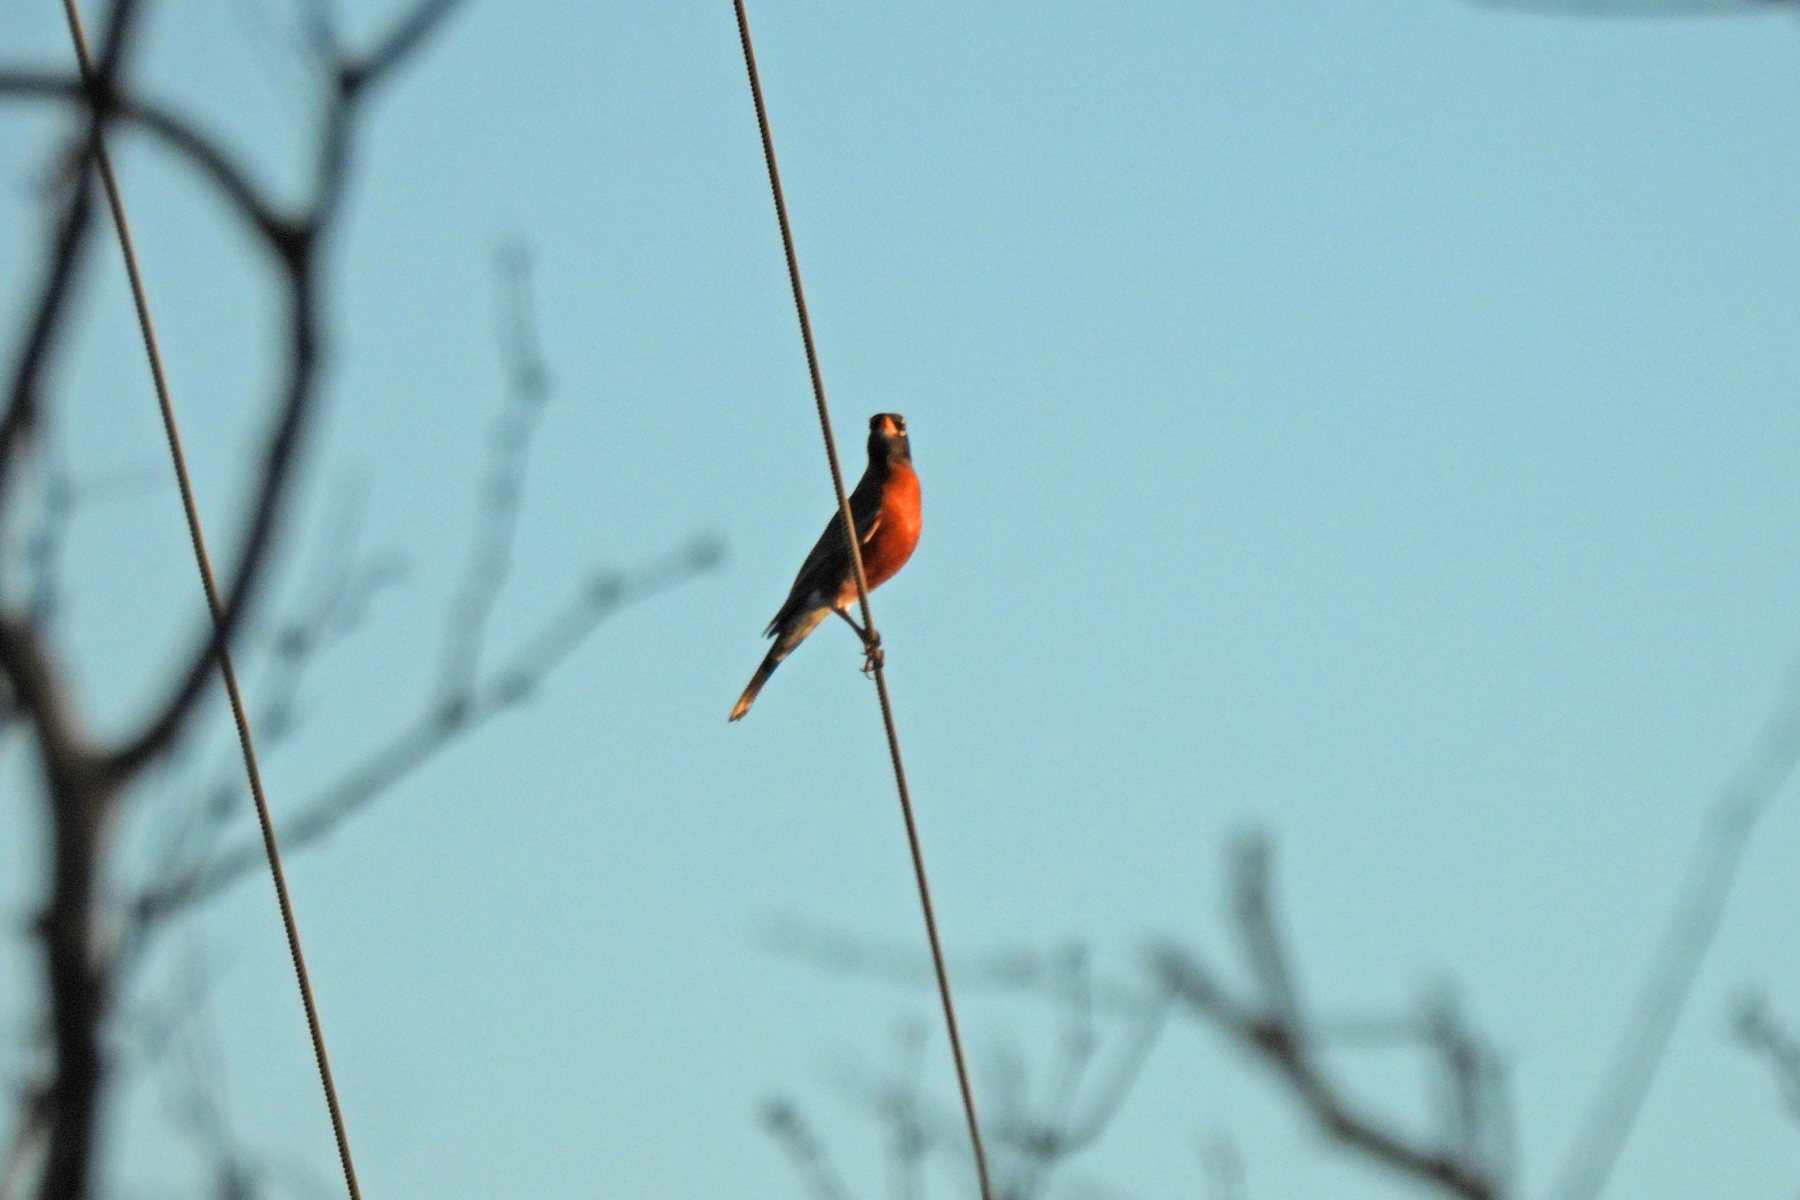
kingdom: Animalia
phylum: Chordata
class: Aves
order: Passeriformes
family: Turdidae
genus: Turdus
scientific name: Turdus migratorius
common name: American robin
